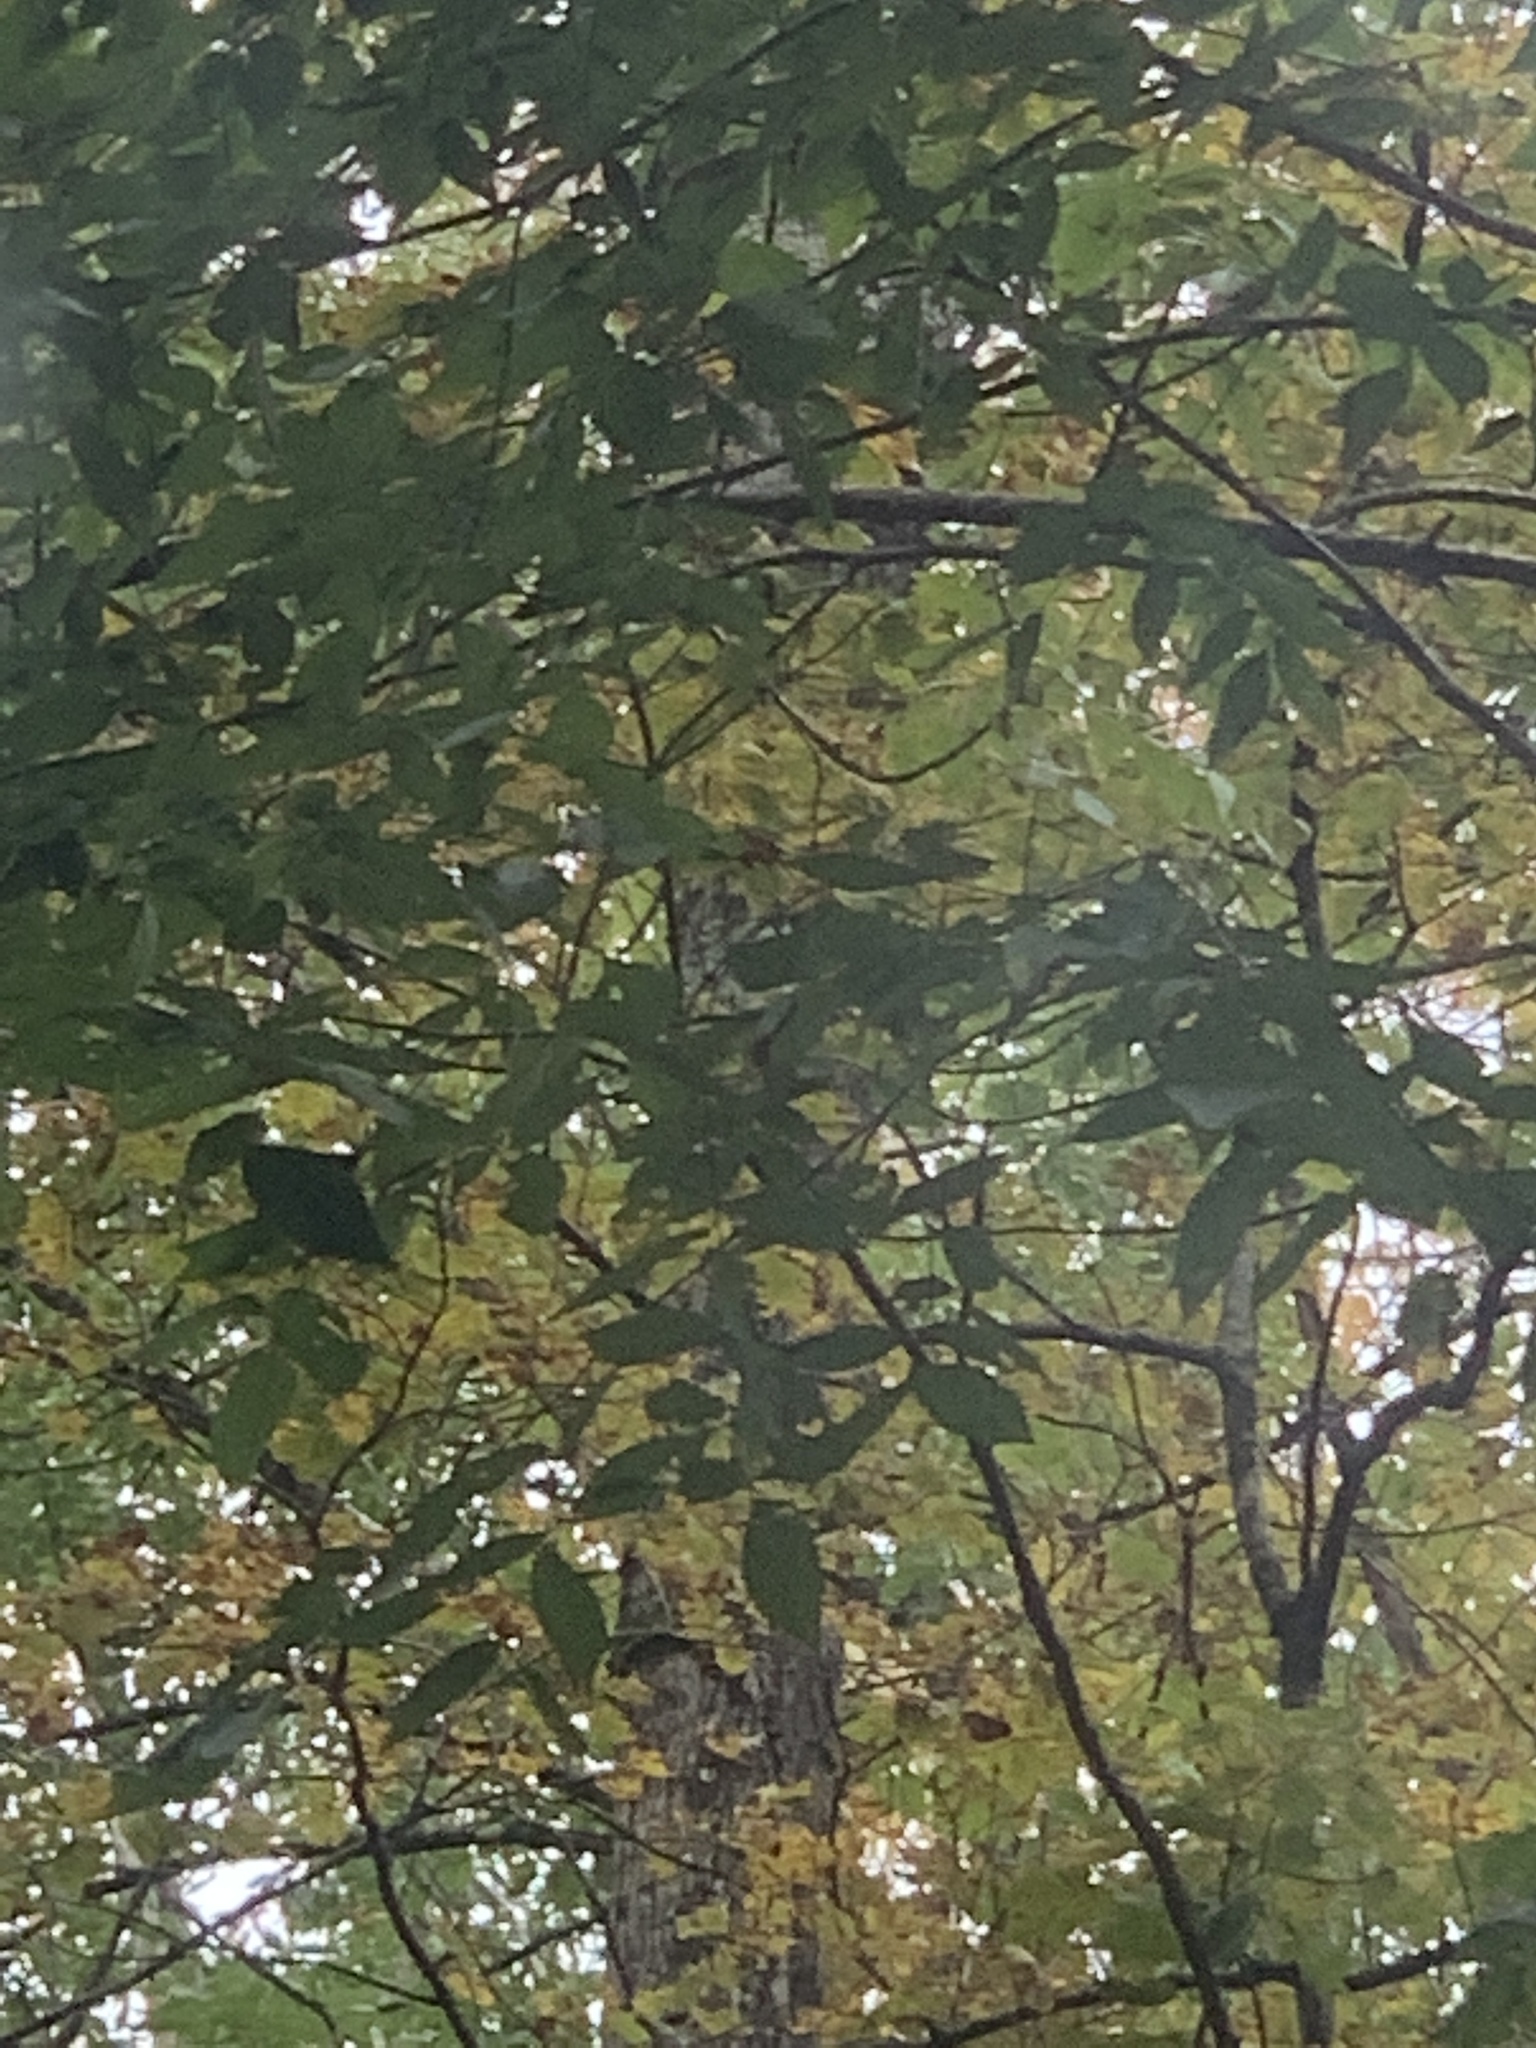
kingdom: Plantae
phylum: Tracheophyta
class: Magnoliopsida
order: Sapindales
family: Sapindaceae
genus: Acer
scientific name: Acer saccharum
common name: Sugar maple
